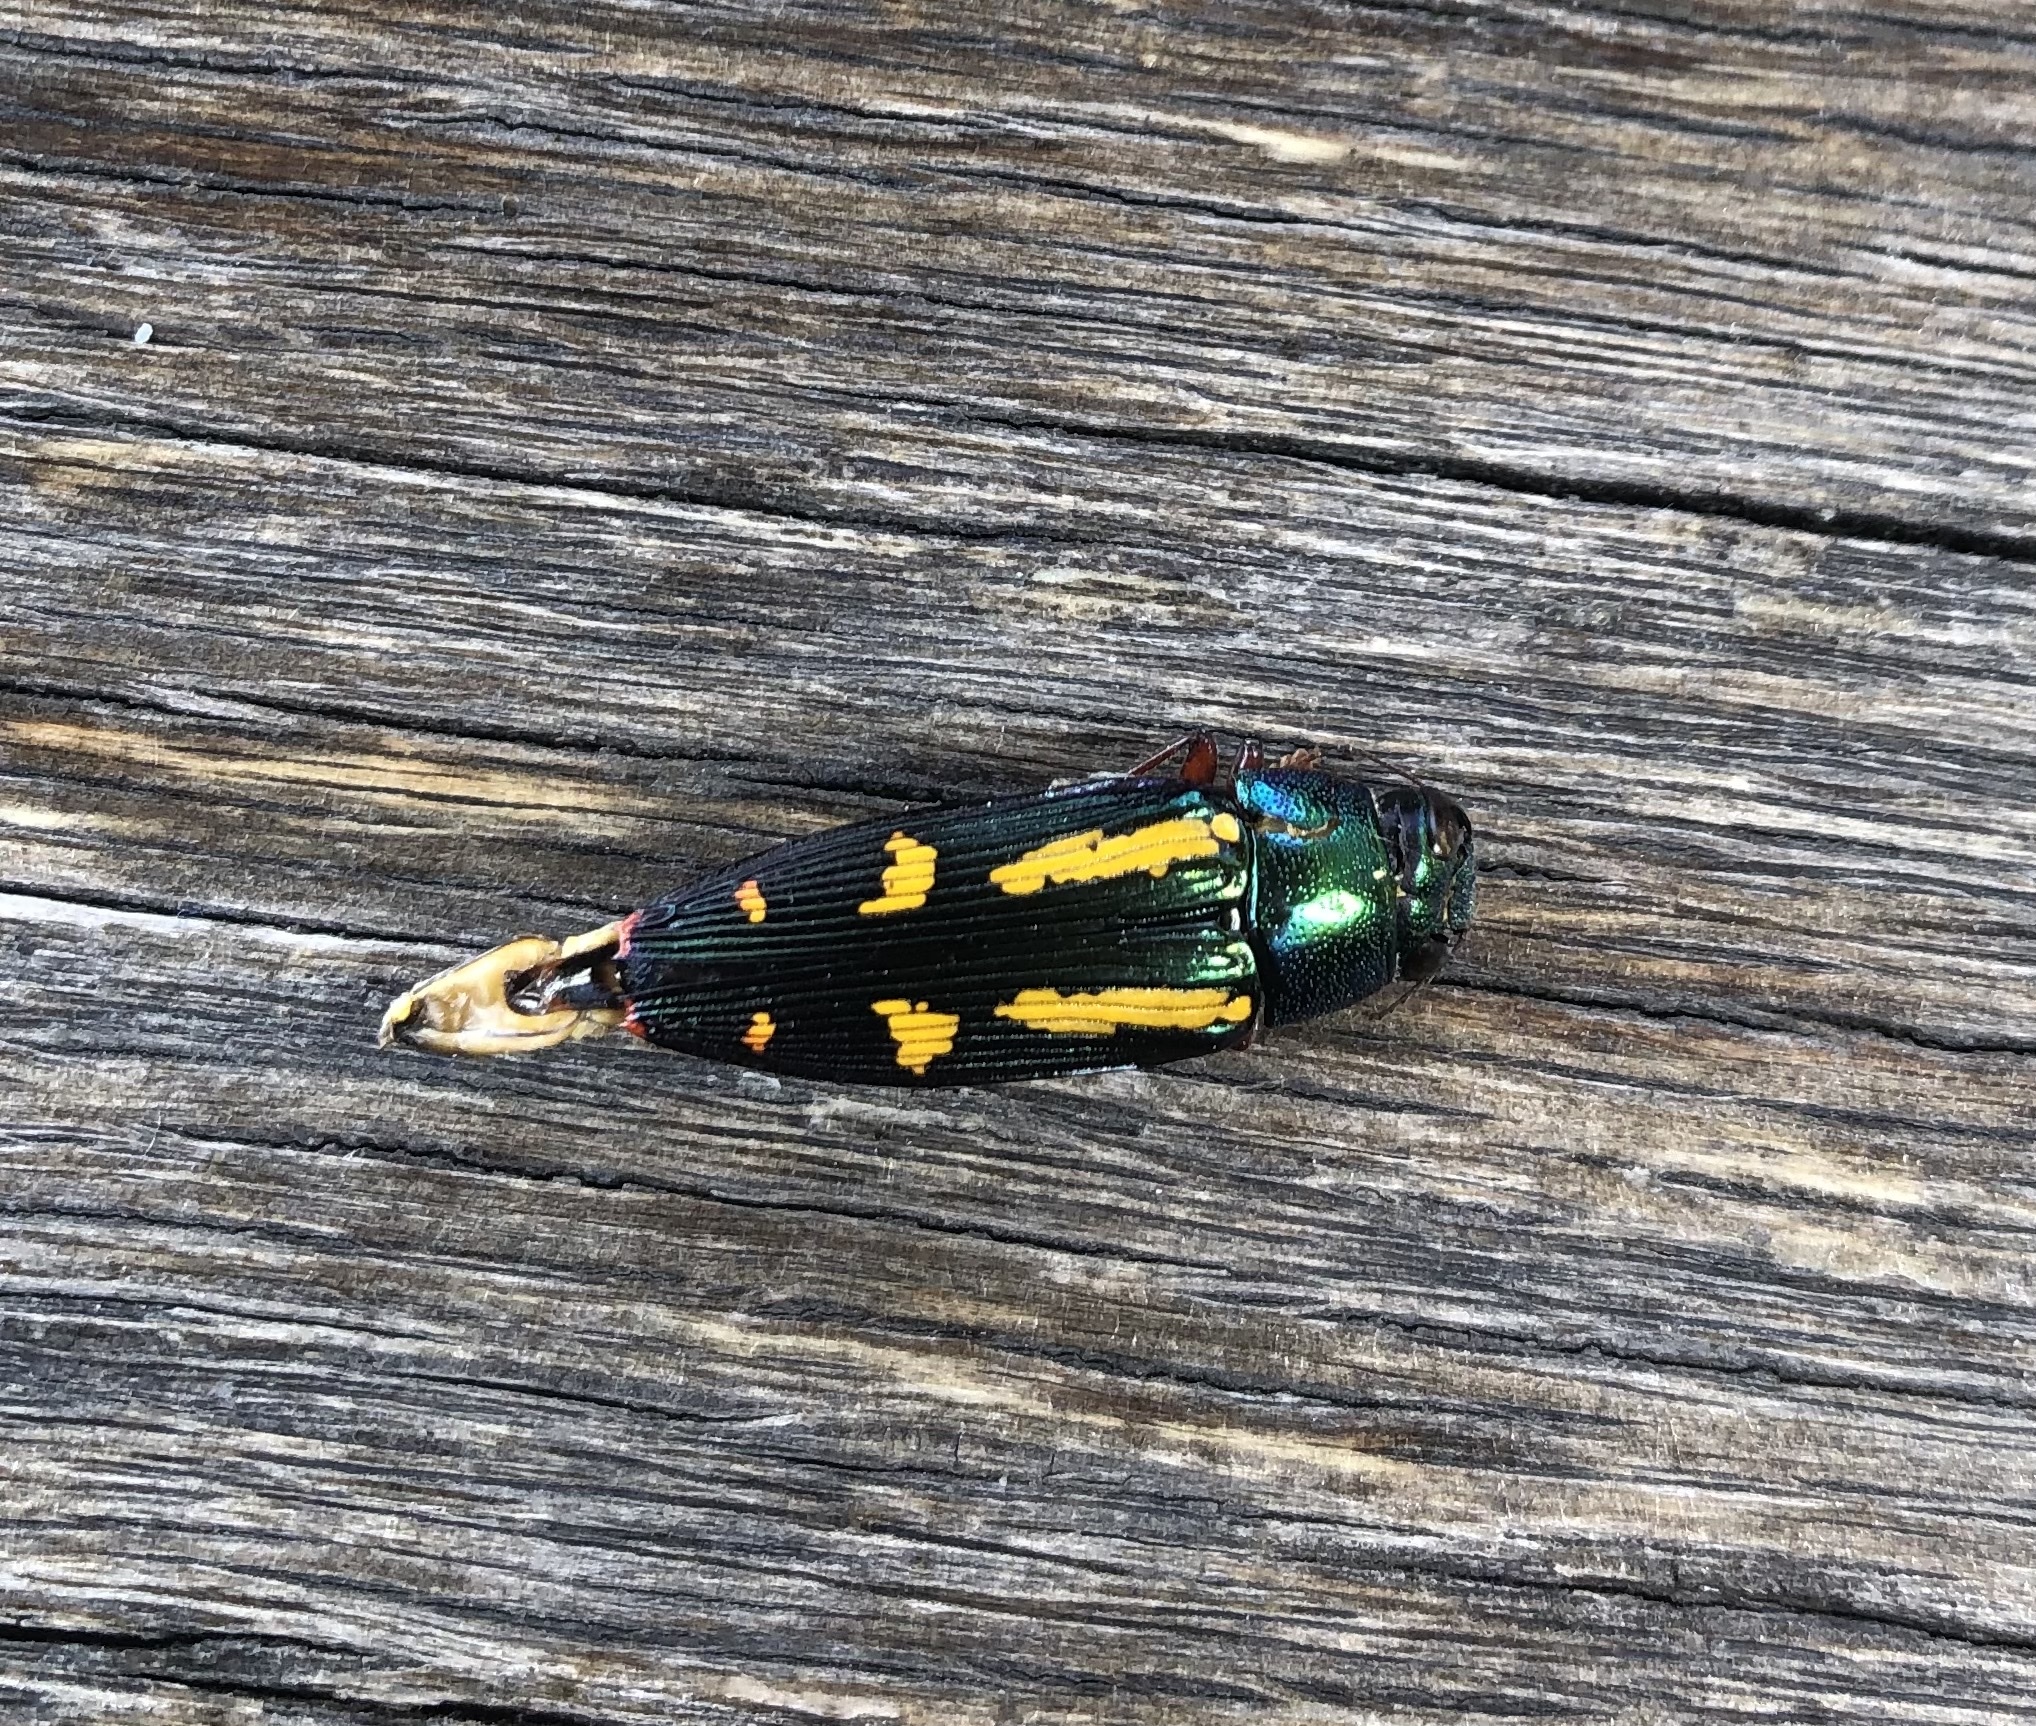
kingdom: Animalia
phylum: Arthropoda
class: Insecta
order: Coleoptera
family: Buprestidae
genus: Buprestis
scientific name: Buprestis rufipes
